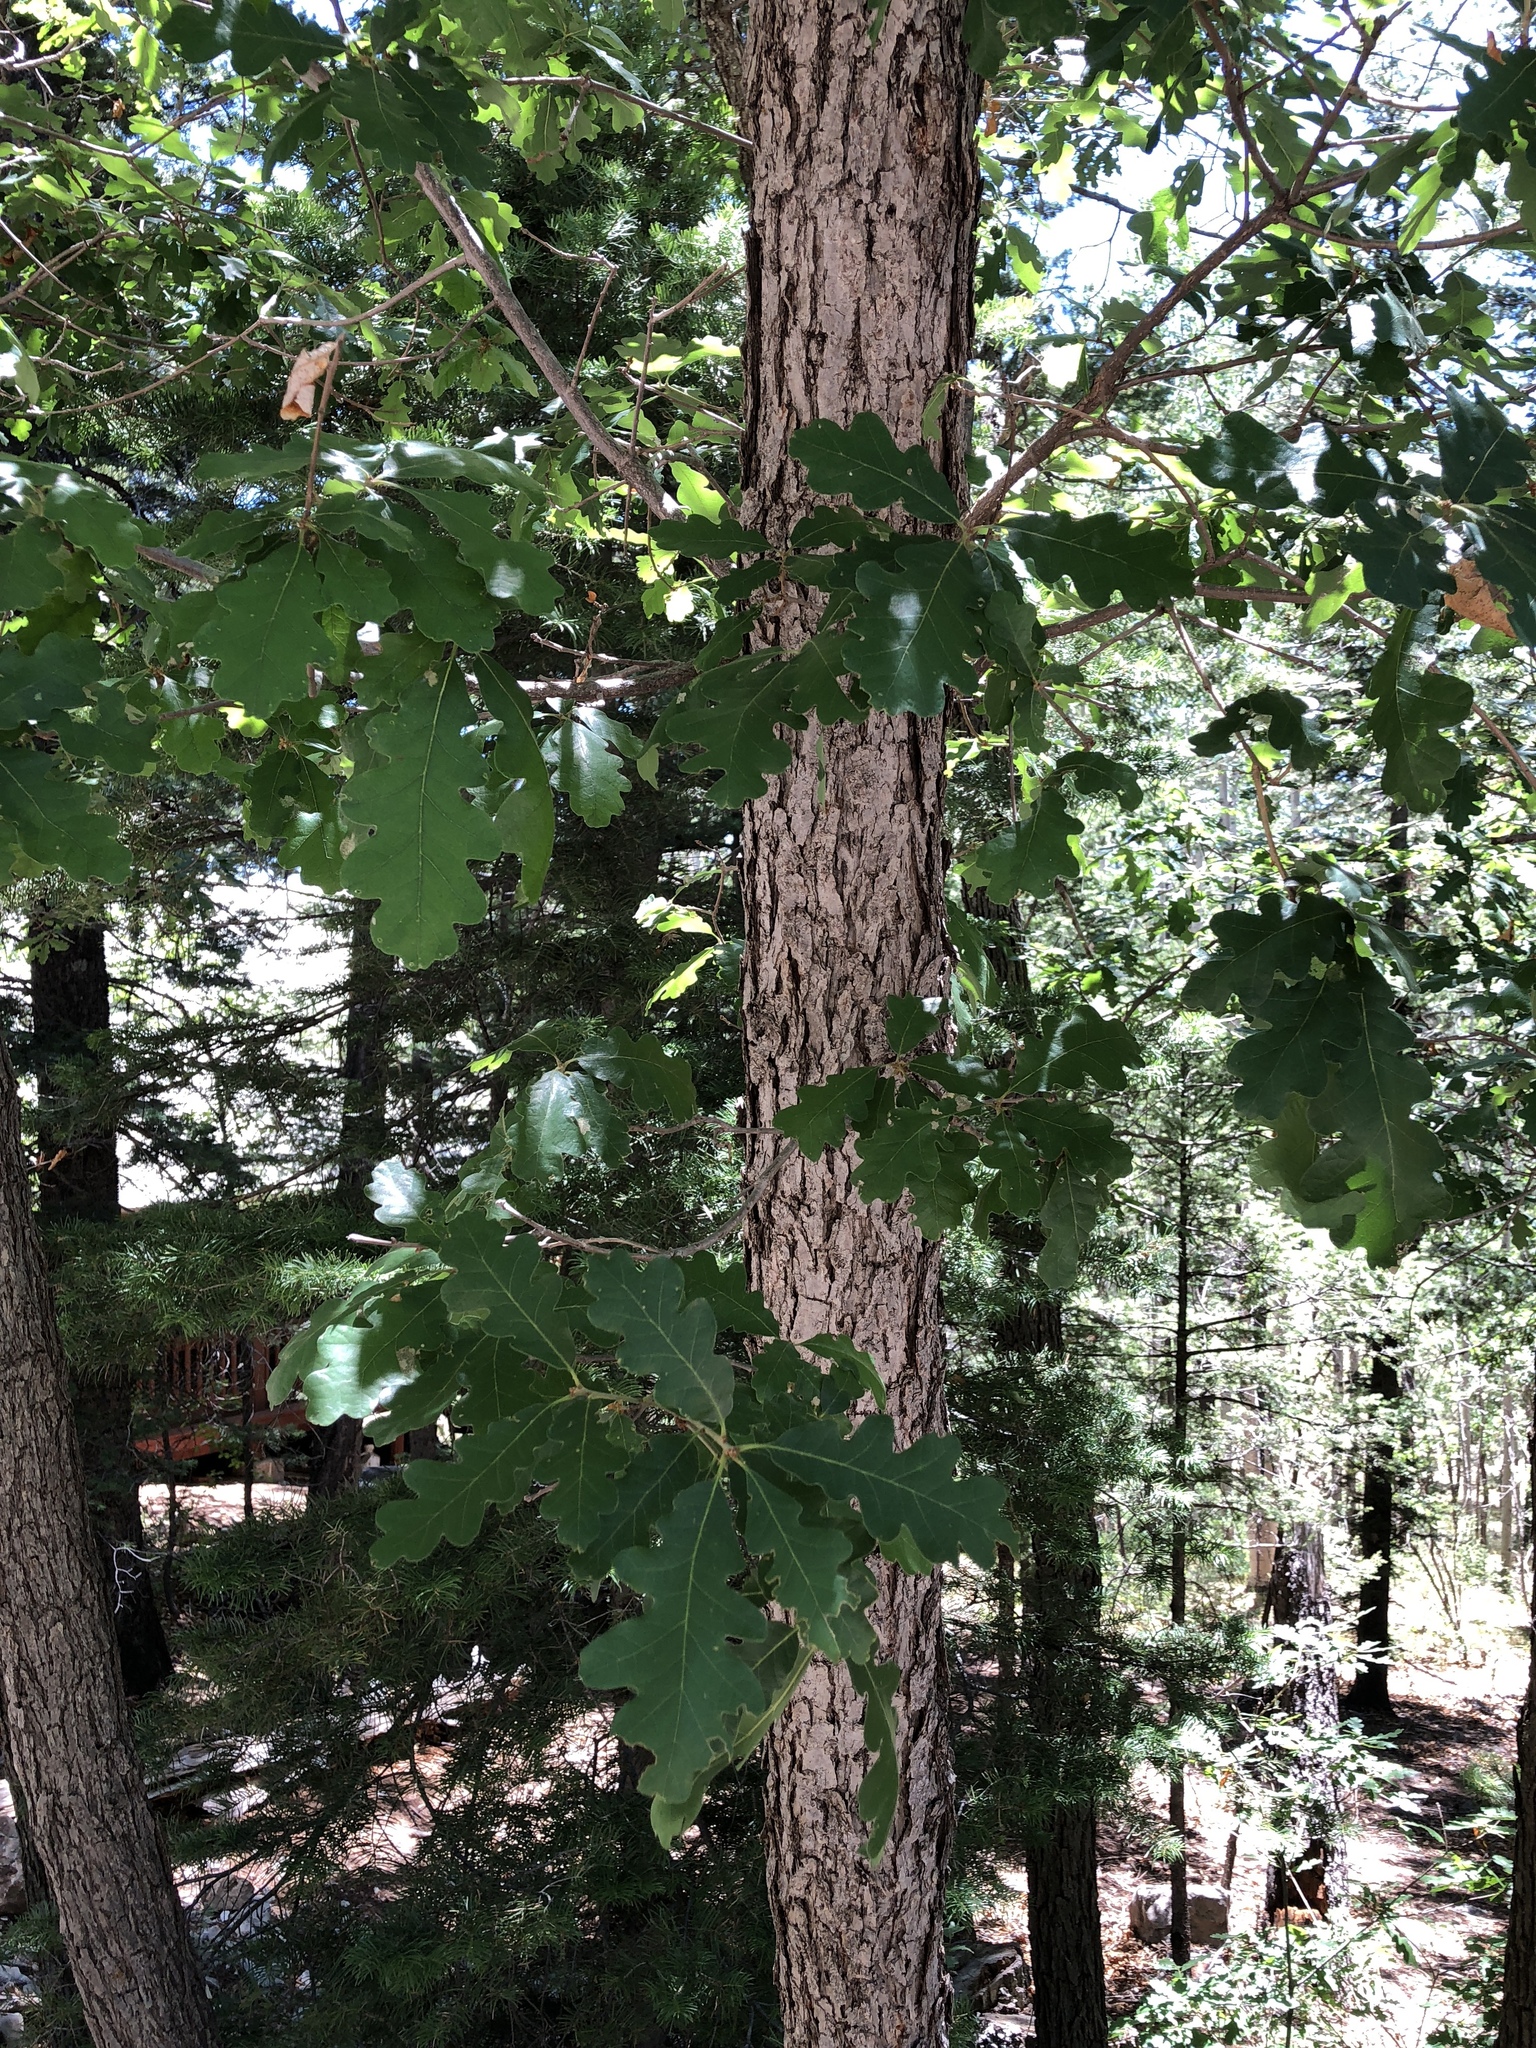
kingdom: Plantae
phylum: Tracheophyta
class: Magnoliopsida
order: Fagales
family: Fagaceae
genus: Quercus
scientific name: Quercus gambelii
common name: Gambel oak
